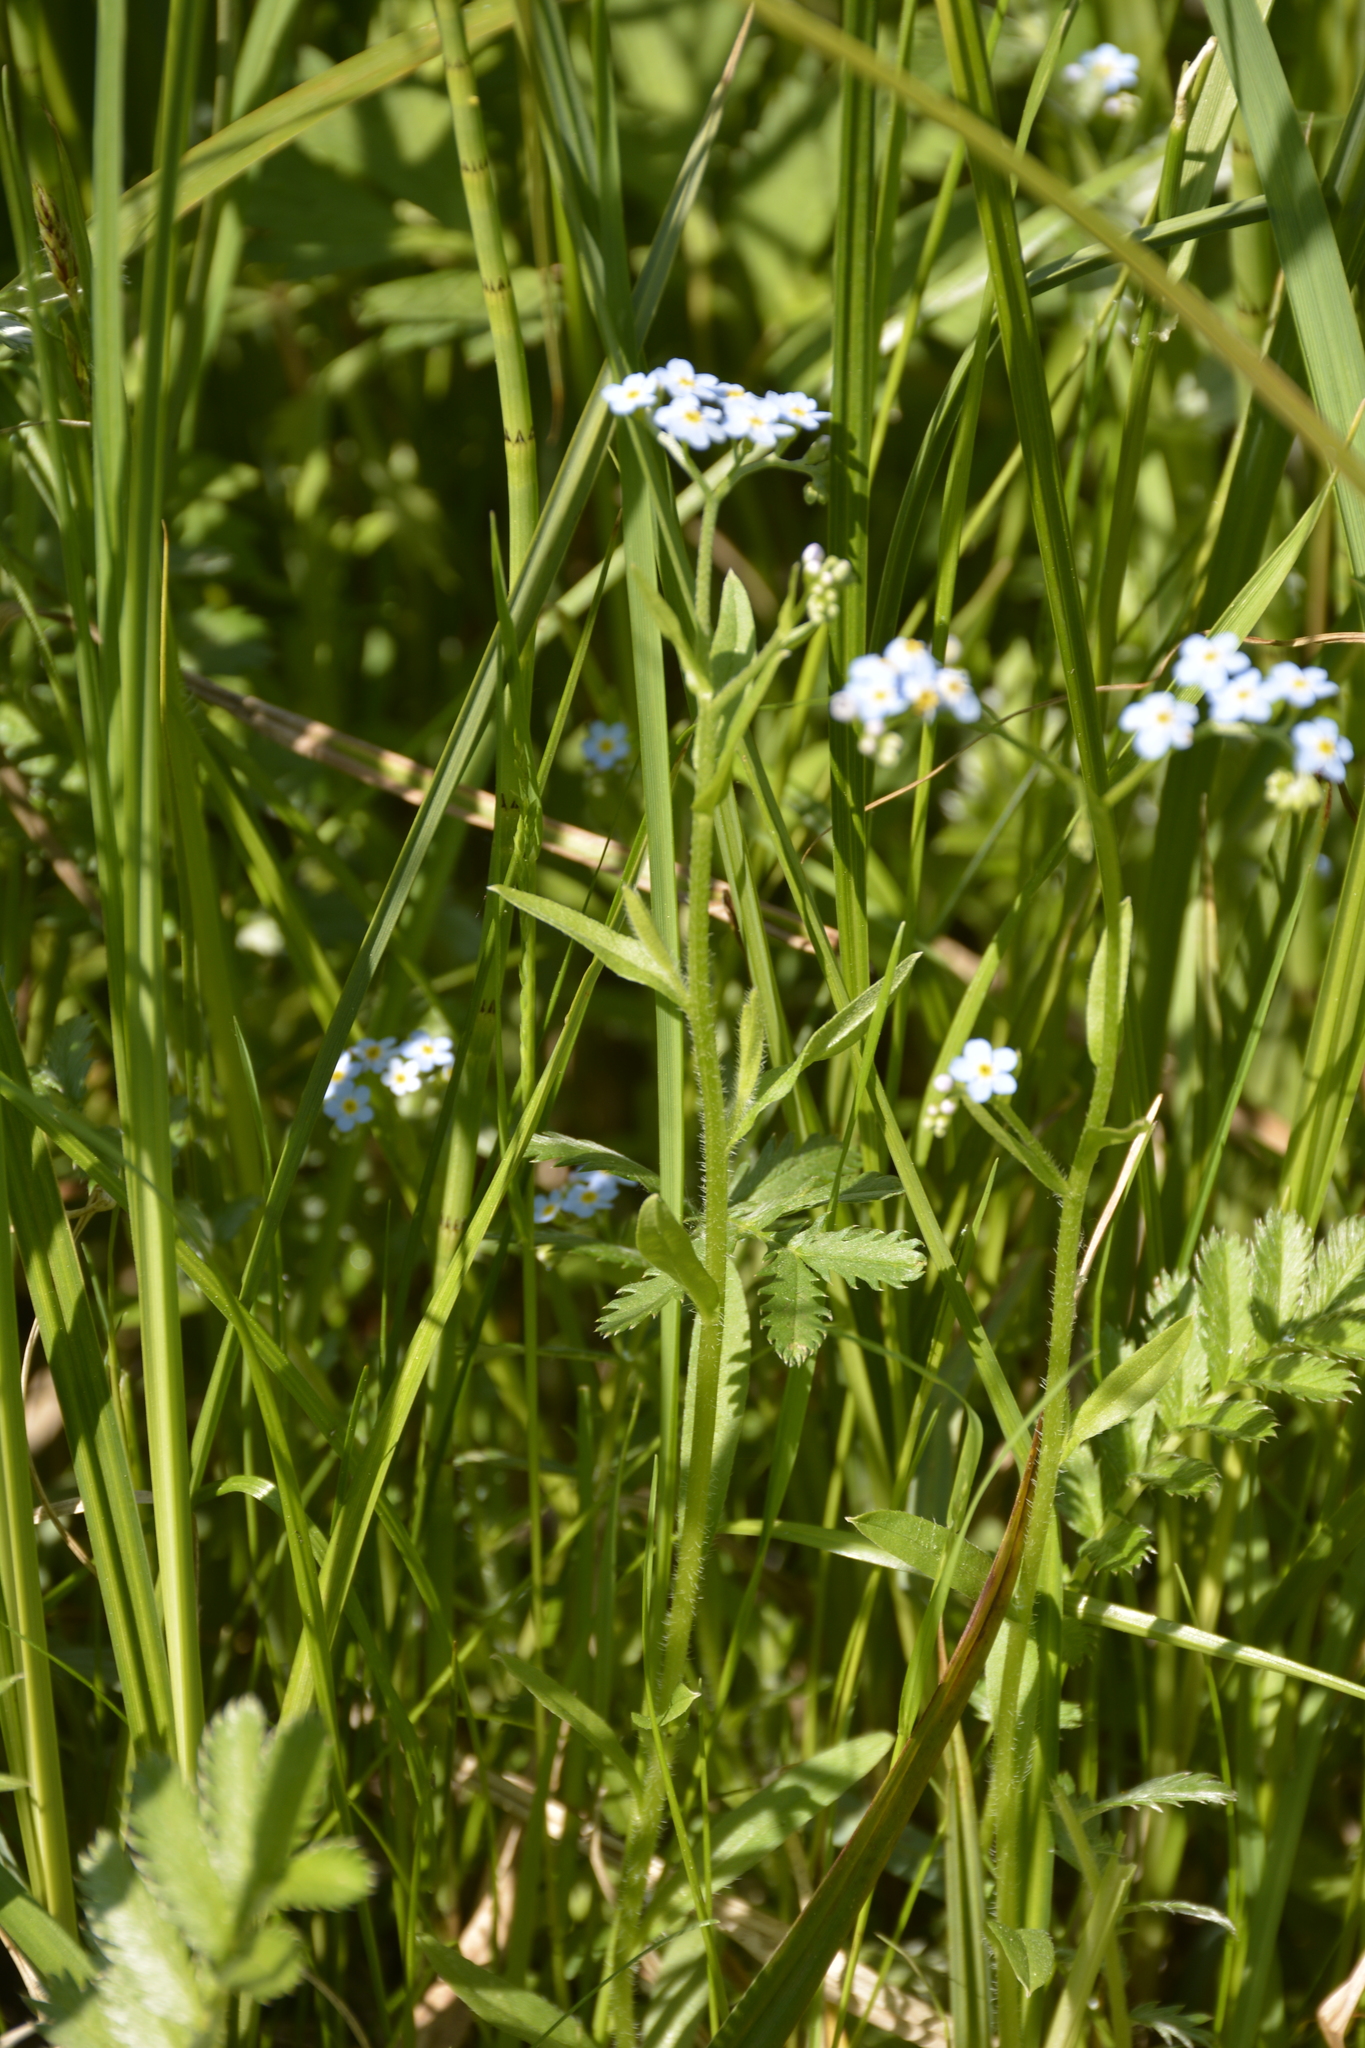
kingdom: Plantae
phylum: Tracheophyta
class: Magnoliopsida
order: Boraginales
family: Boraginaceae
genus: Myosotis
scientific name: Myosotis scorpioides
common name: Water forget-me-not
